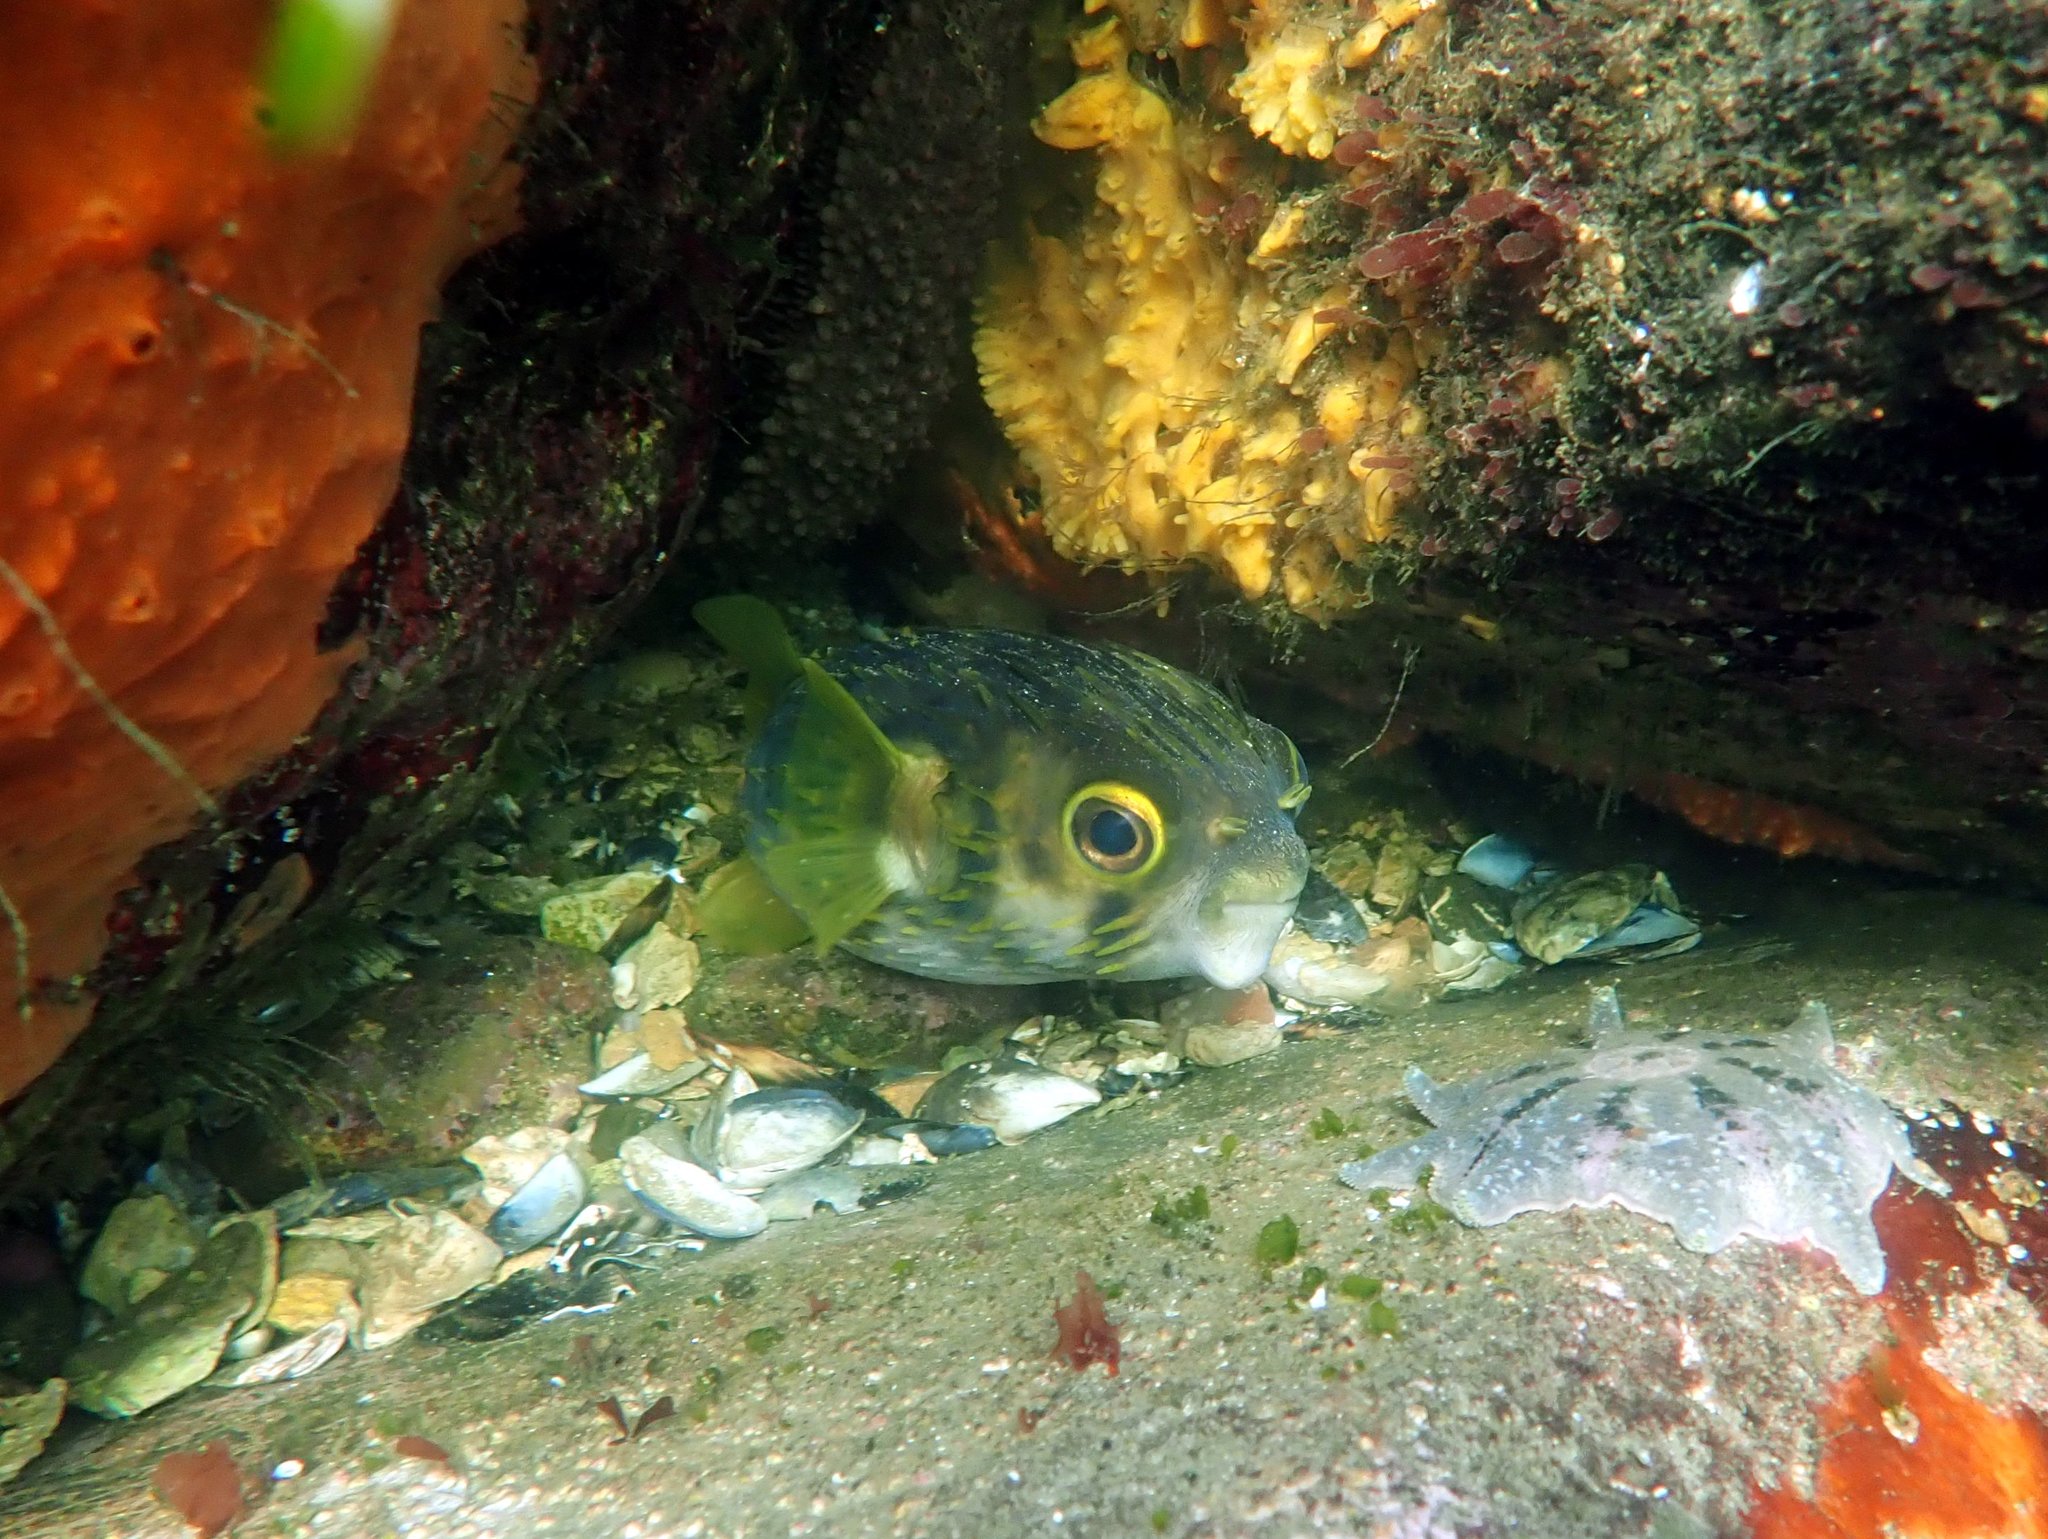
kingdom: Animalia
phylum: Chordata
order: Tetraodontiformes
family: Diodontidae
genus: Diodon
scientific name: Diodon nicthemerus
